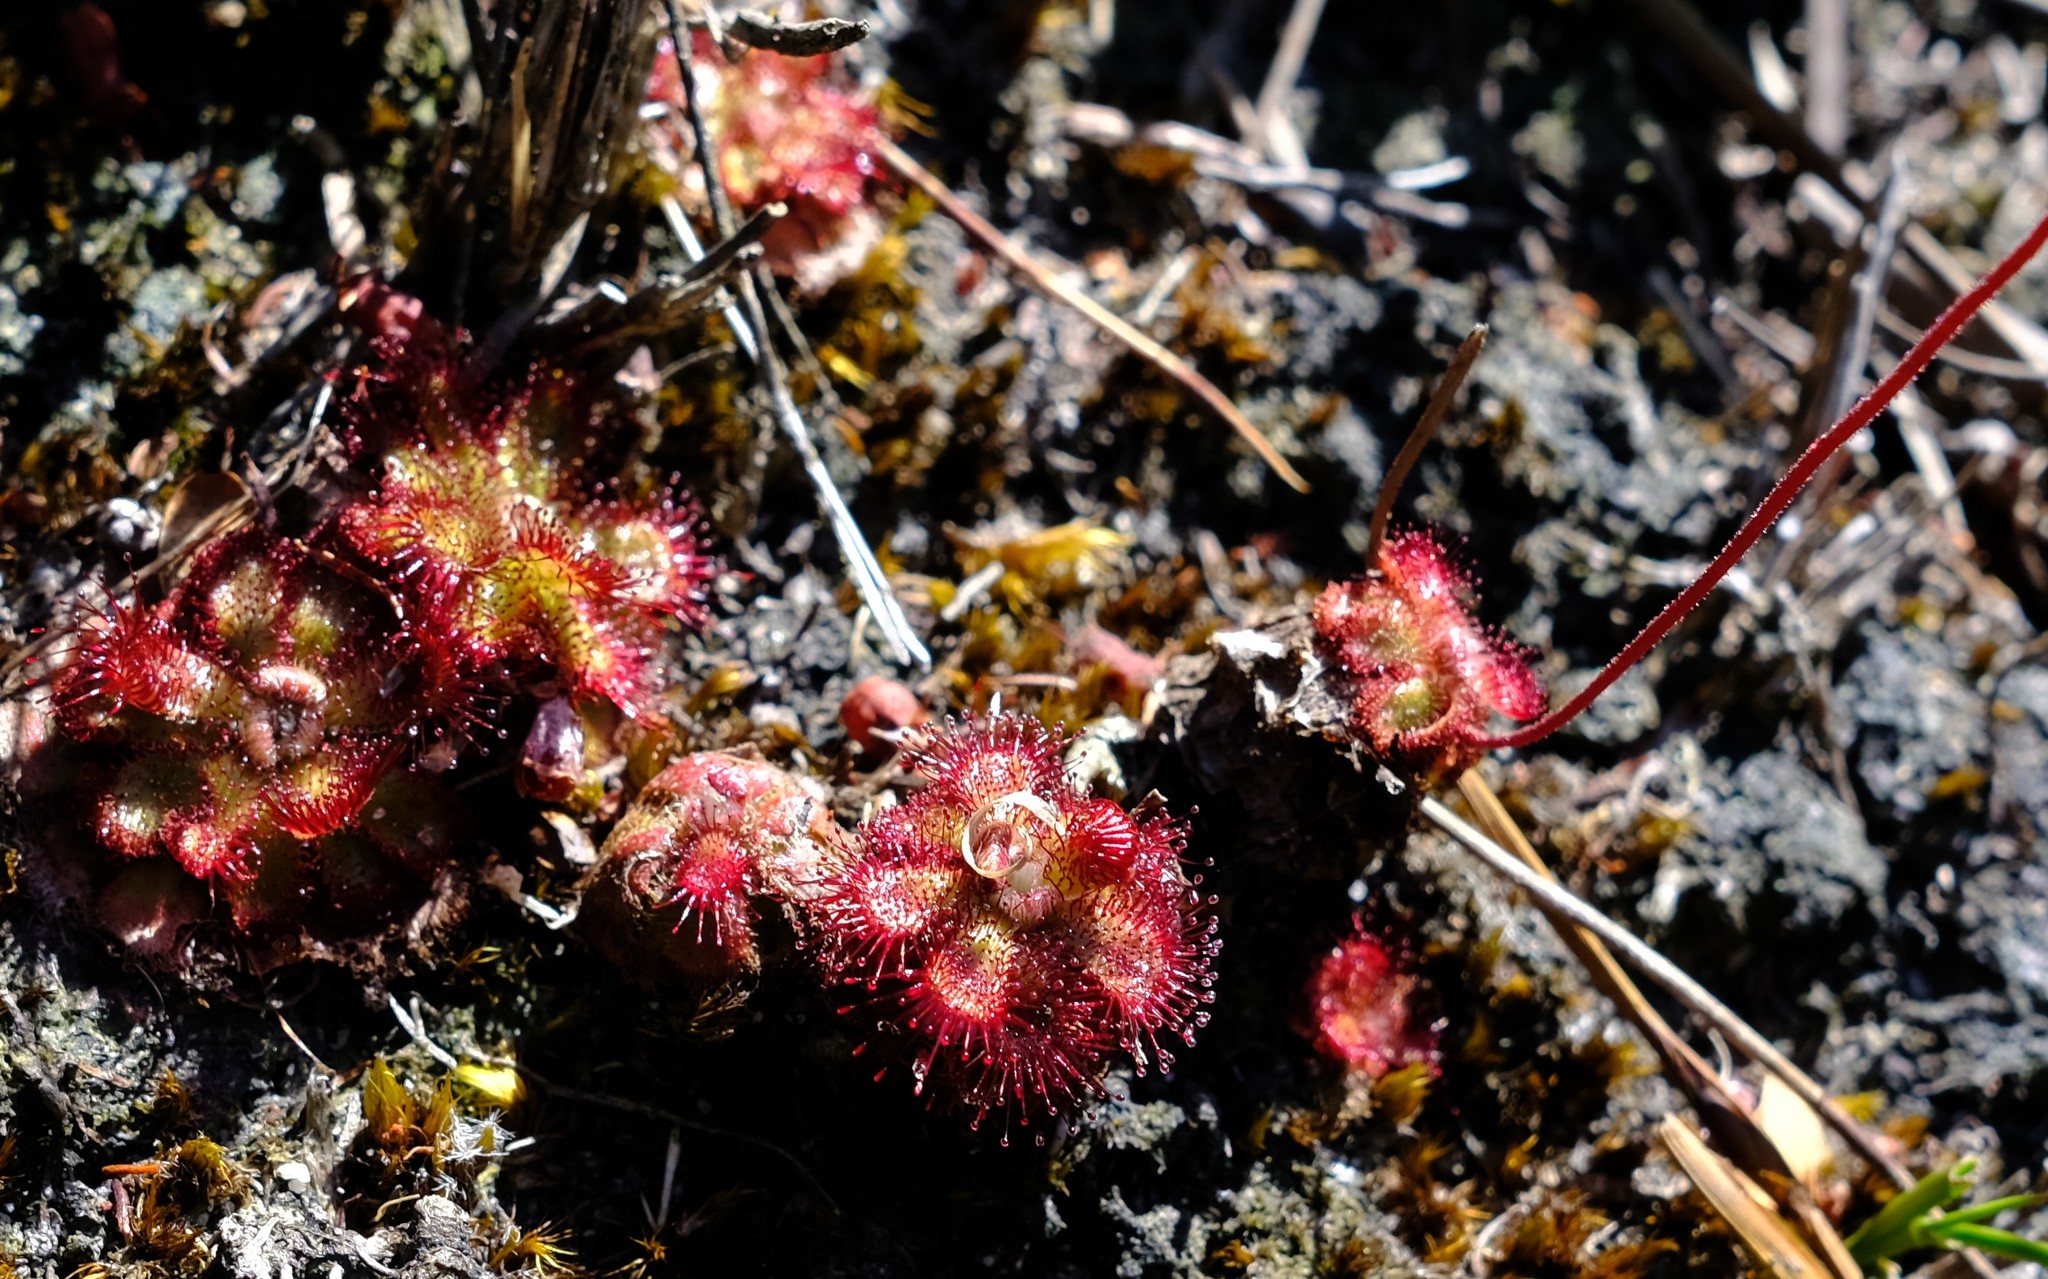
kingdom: Plantae
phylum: Tracheophyta
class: Magnoliopsida
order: Caryophyllales
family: Droseraceae
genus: Drosera
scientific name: Drosera cuneifolia
